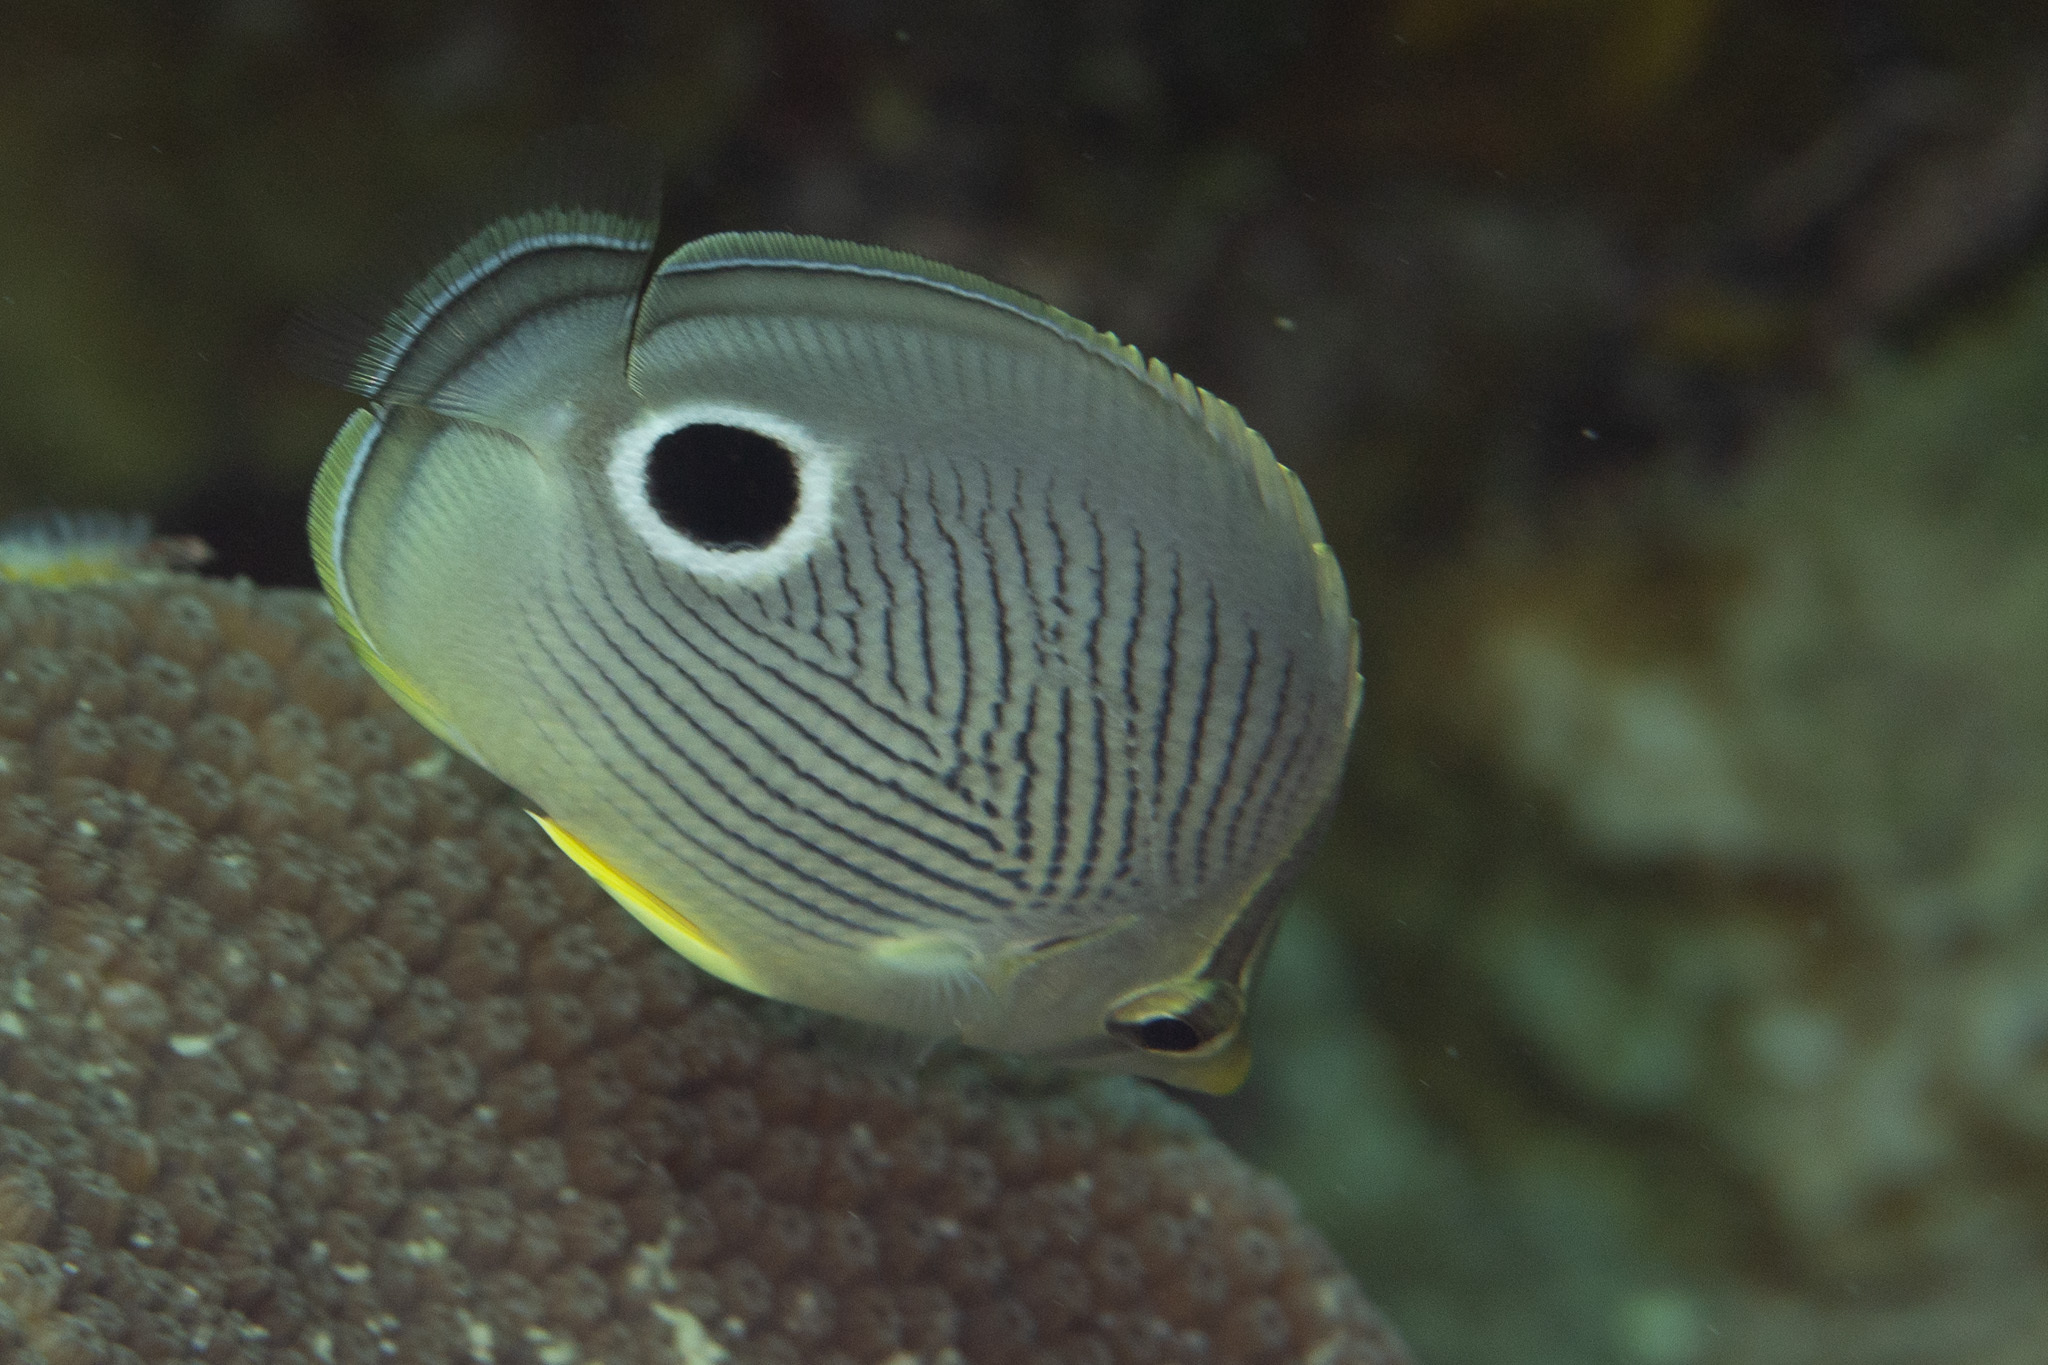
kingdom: Animalia
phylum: Chordata
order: Perciformes
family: Chaetodontidae
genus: Chaetodon
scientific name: Chaetodon capistratus
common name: Kete
